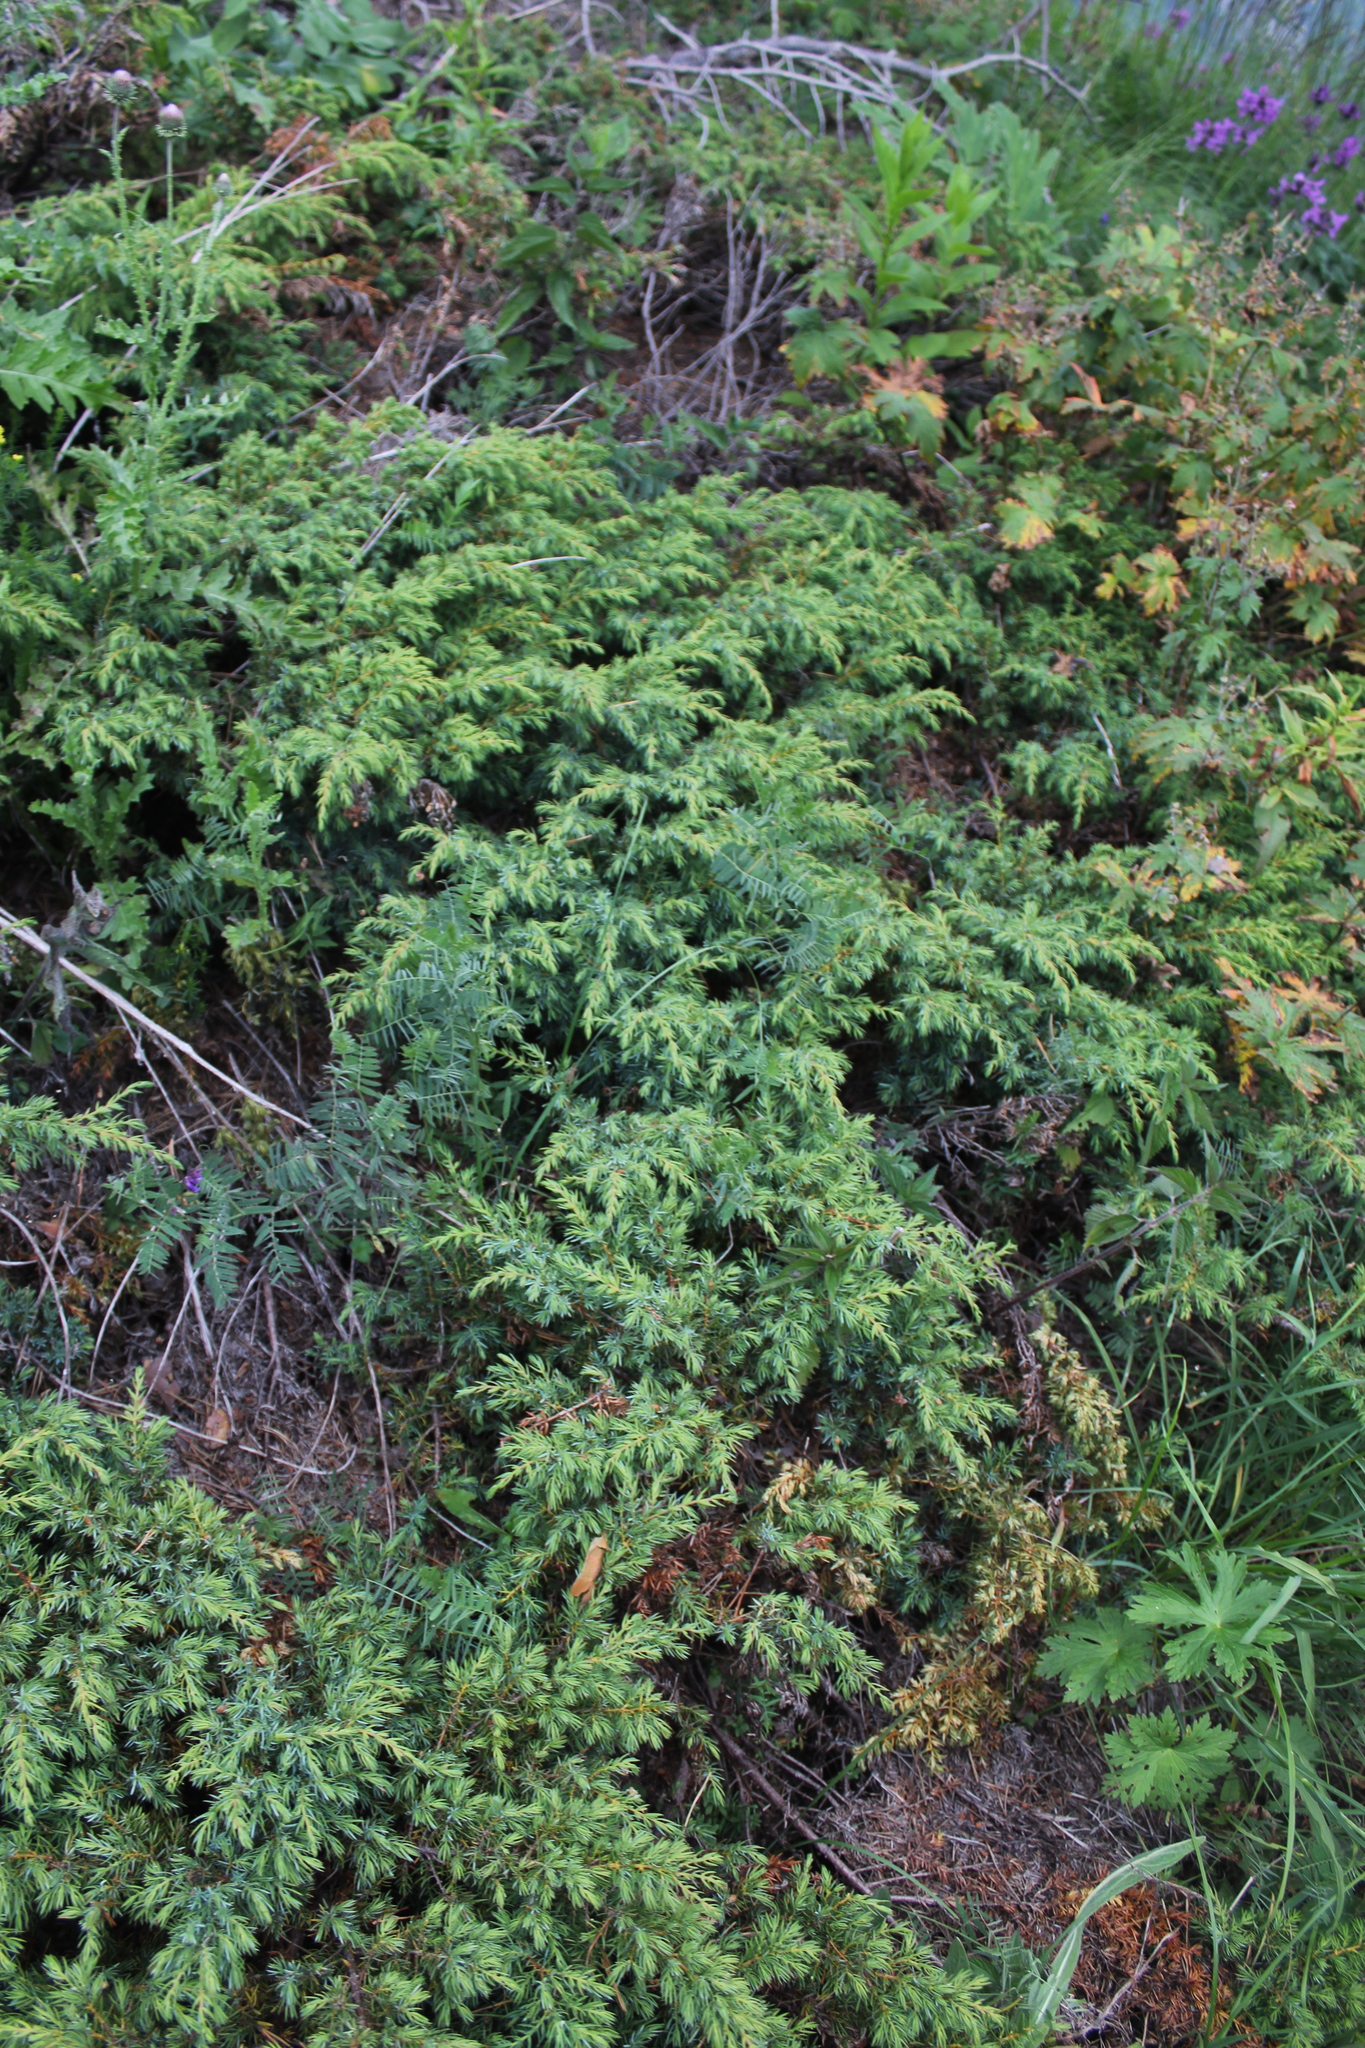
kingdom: Plantae
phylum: Tracheophyta
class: Pinopsida
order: Pinales
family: Cupressaceae
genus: Juniperus
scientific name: Juniperus communis
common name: Common juniper
